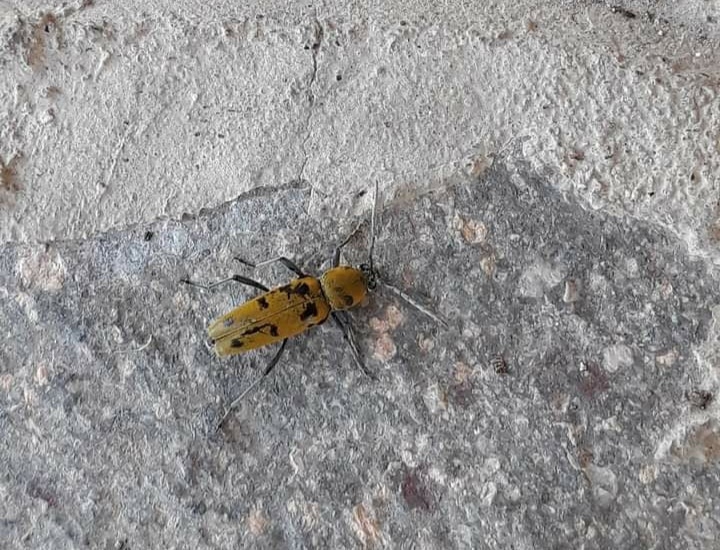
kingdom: Animalia
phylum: Arthropoda
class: Insecta
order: Coleoptera
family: Cerambycidae
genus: Chlorophorus
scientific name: Chlorophorus glabromaculatus
